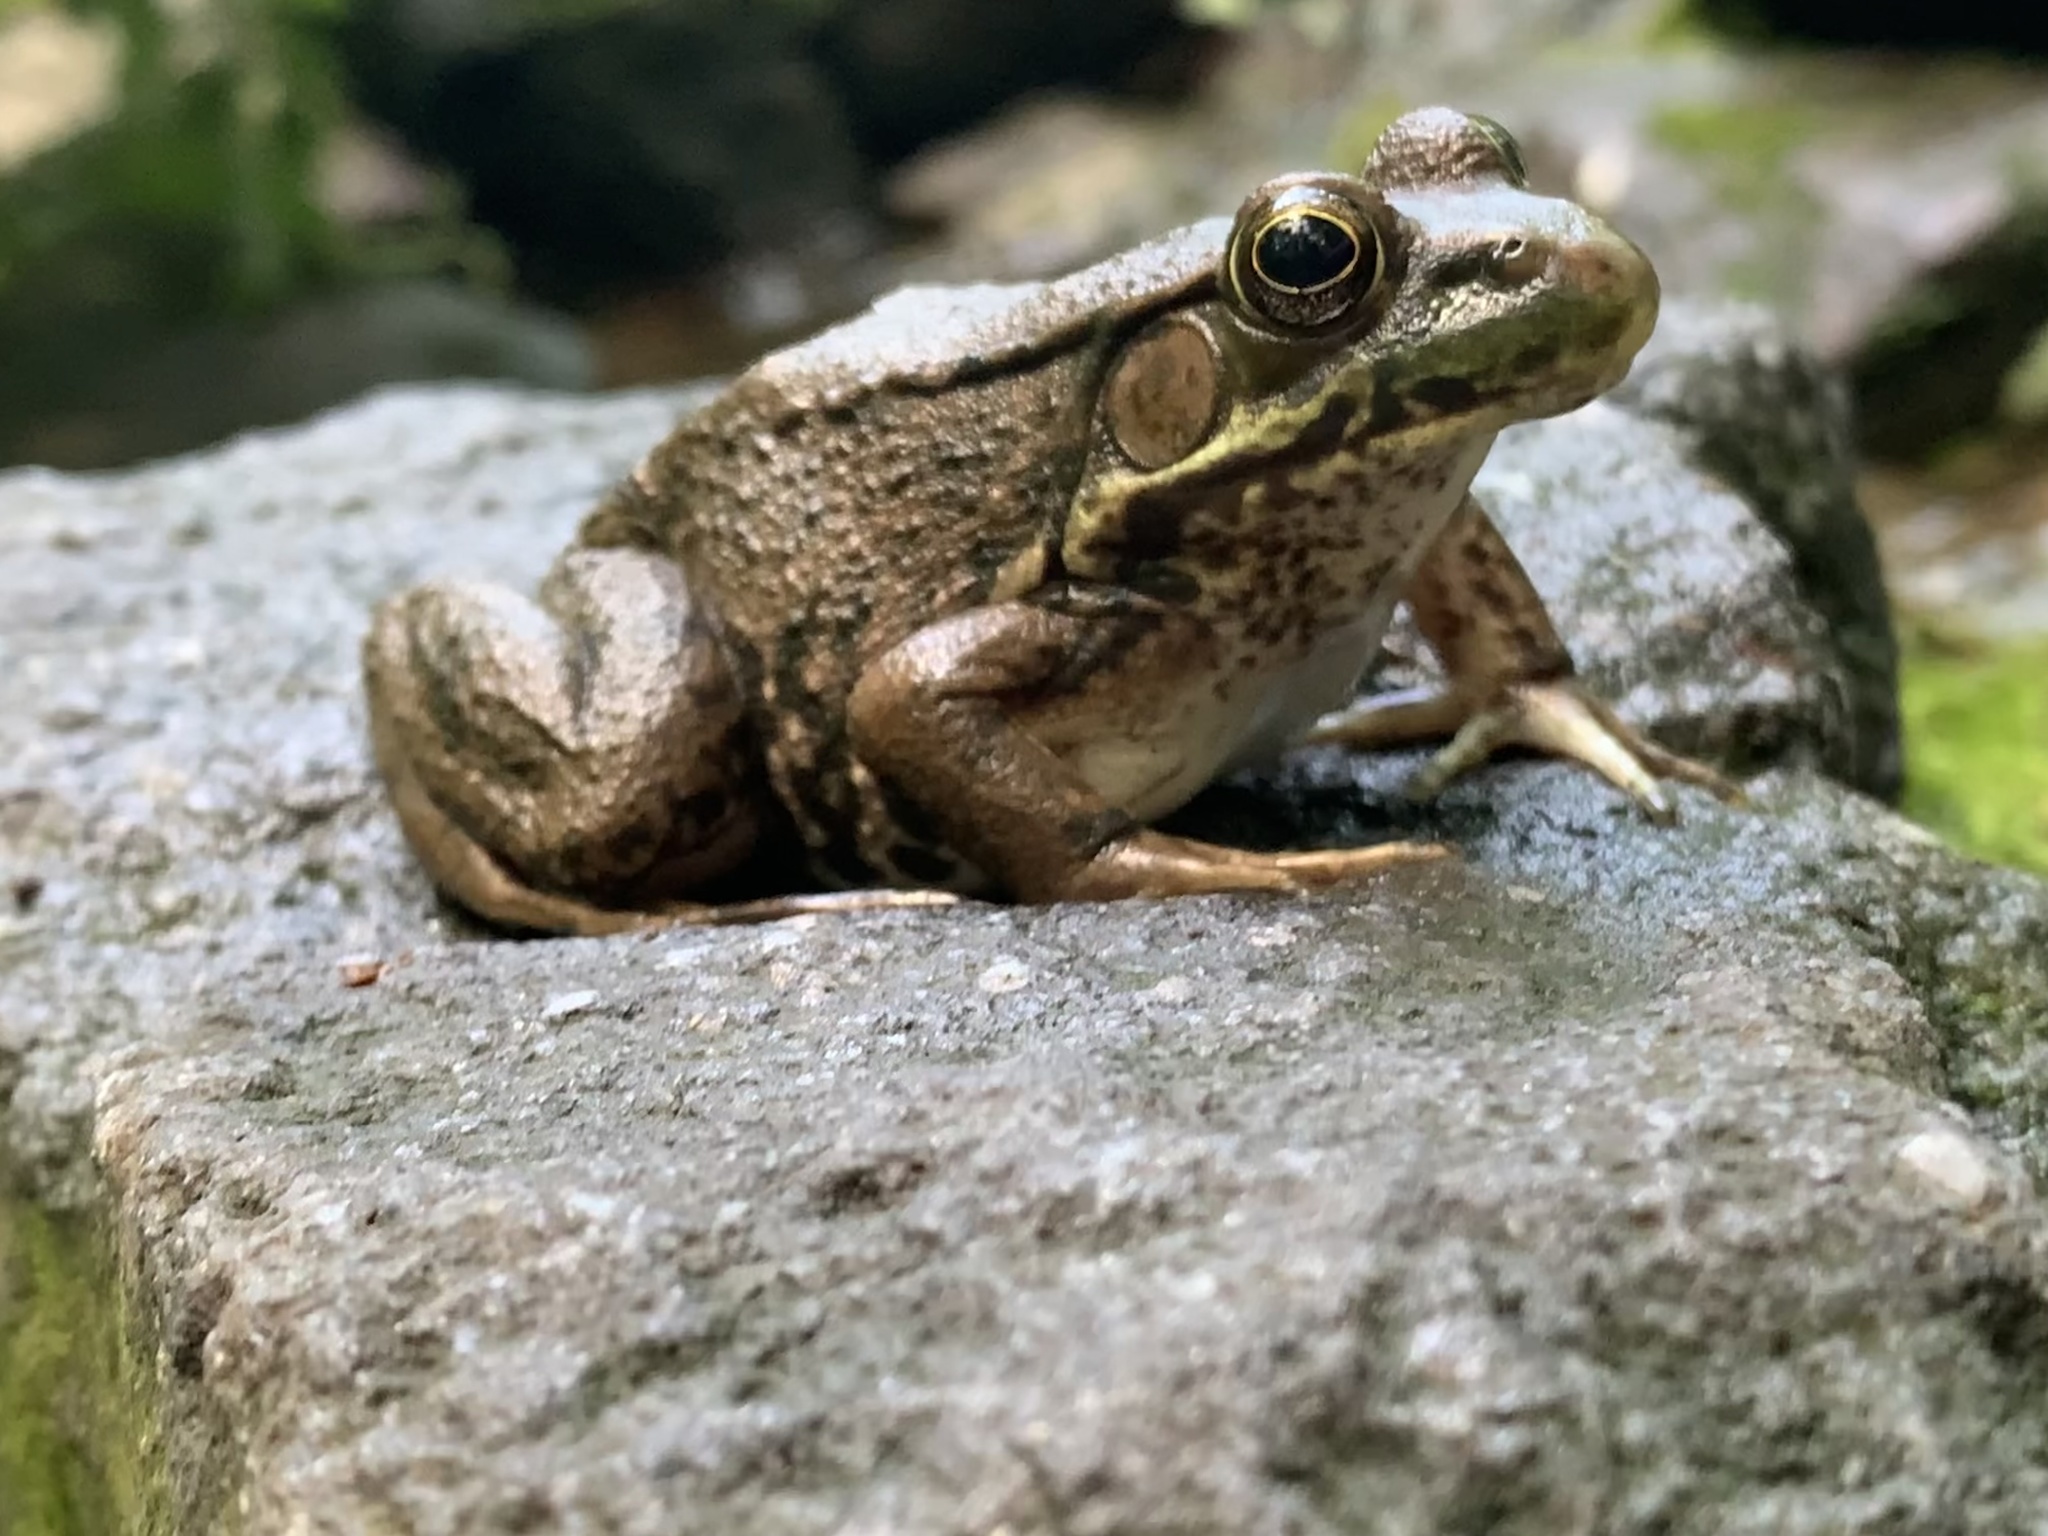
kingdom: Animalia
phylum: Chordata
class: Amphibia
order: Anura
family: Ranidae
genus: Lithobates
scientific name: Lithobates clamitans
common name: Green frog
